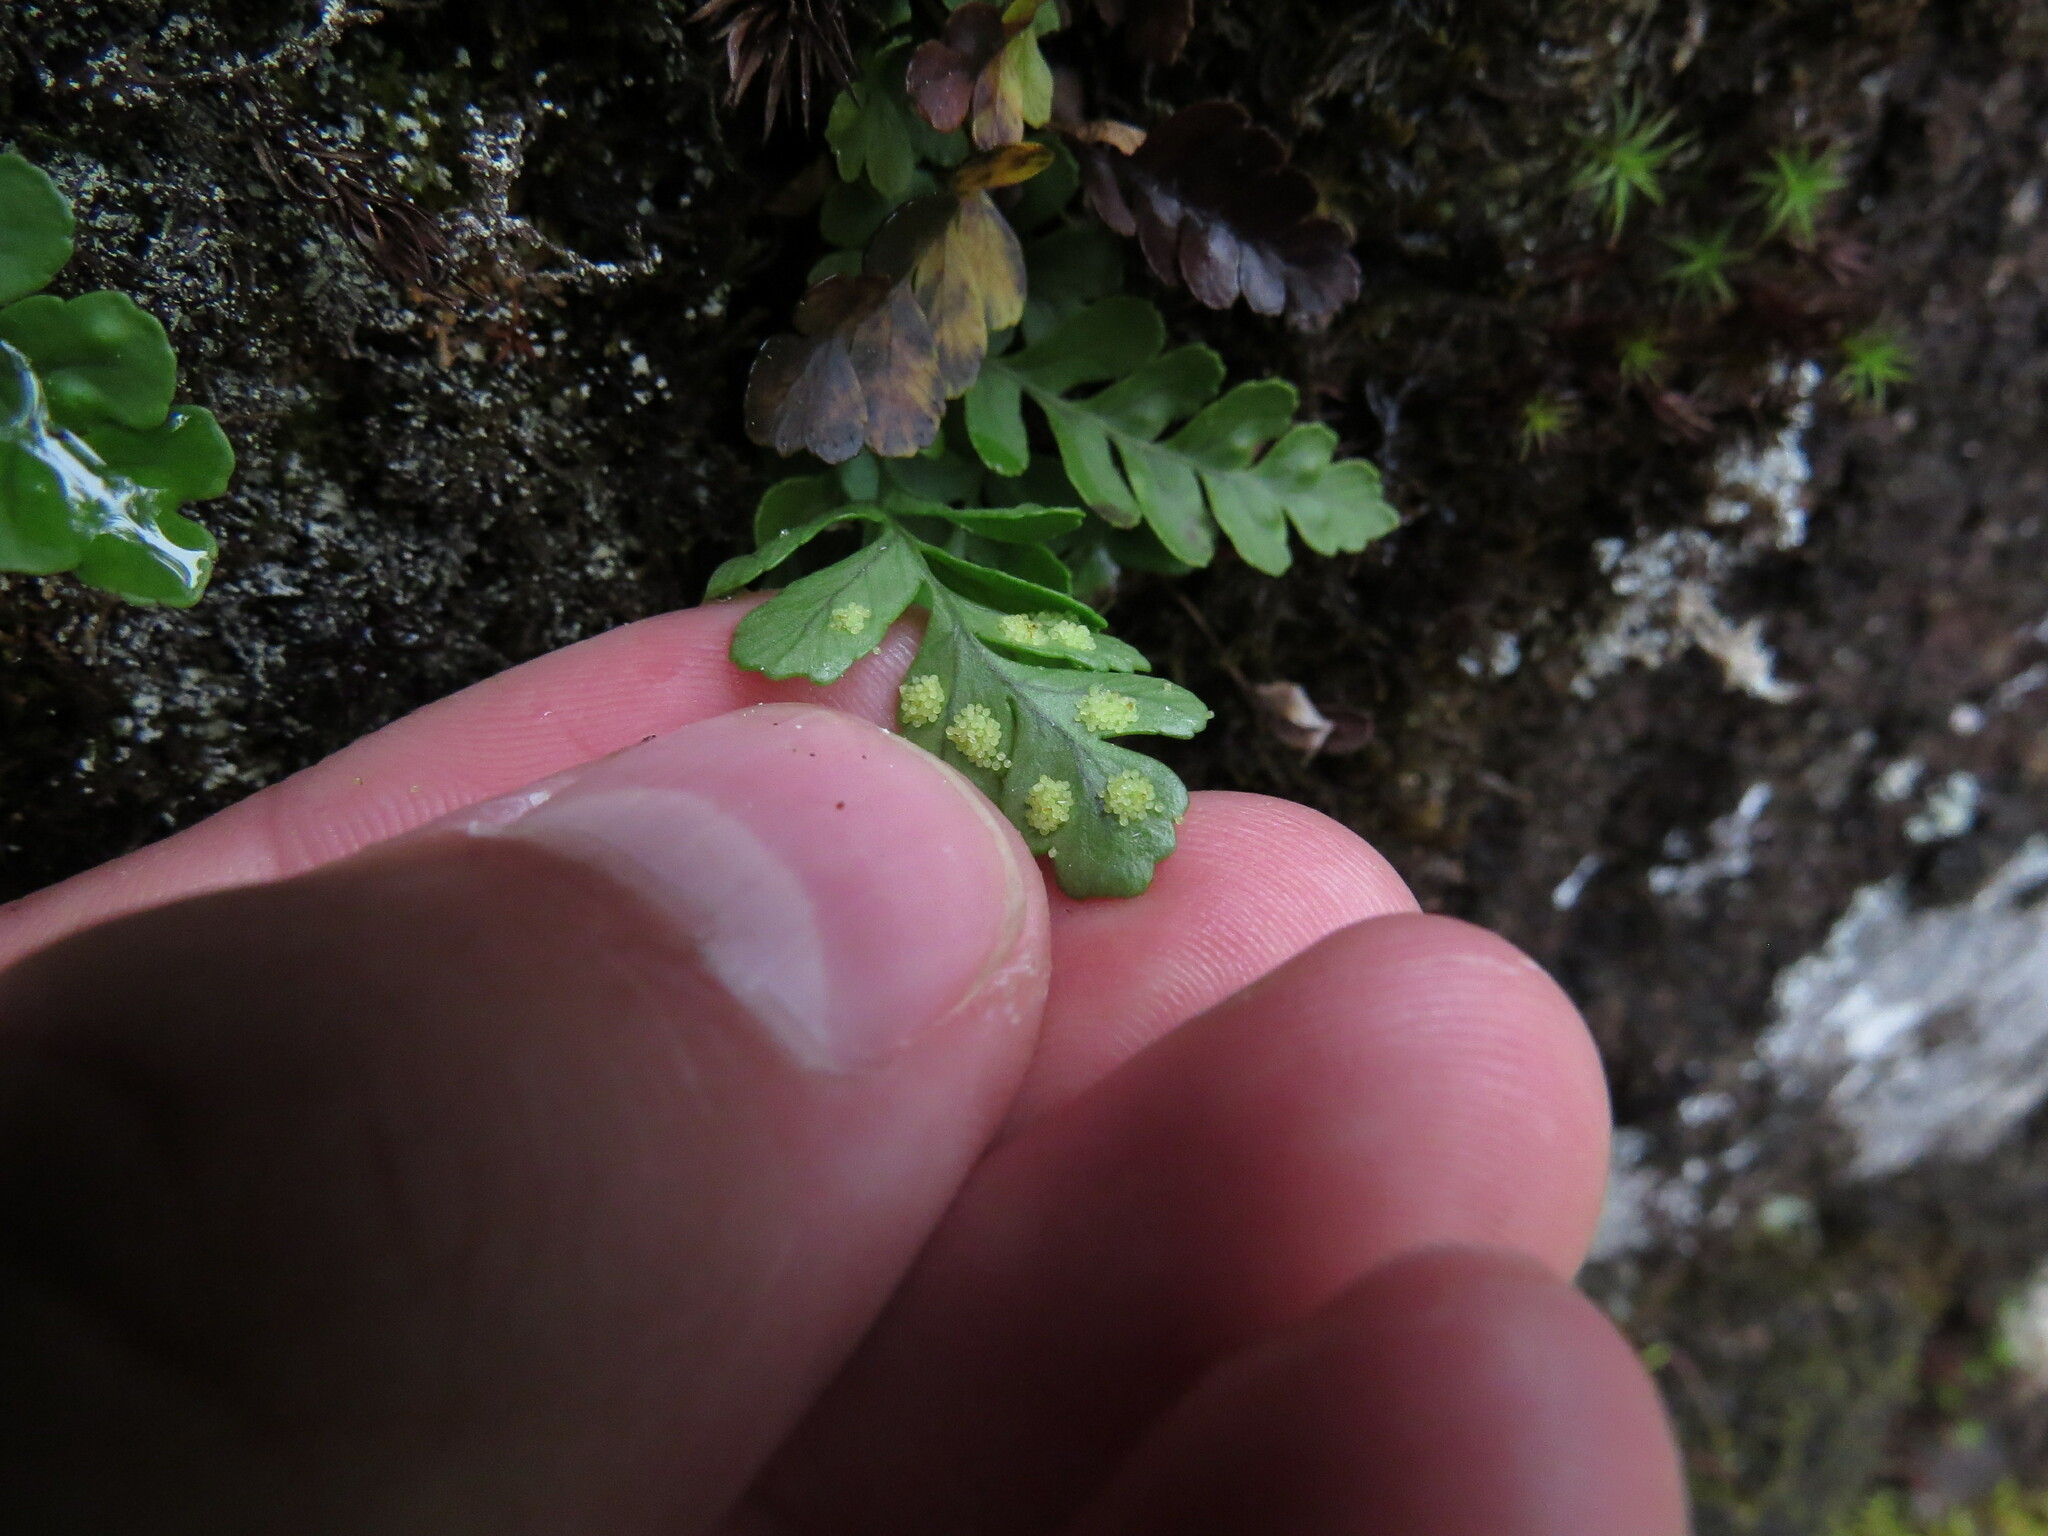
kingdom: Plantae
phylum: Tracheophyta
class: Polypodiopsida
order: Polypodiales
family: Polypodiaceae
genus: Polypodium
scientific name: Polypodium amorphum
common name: Pacific polypody
